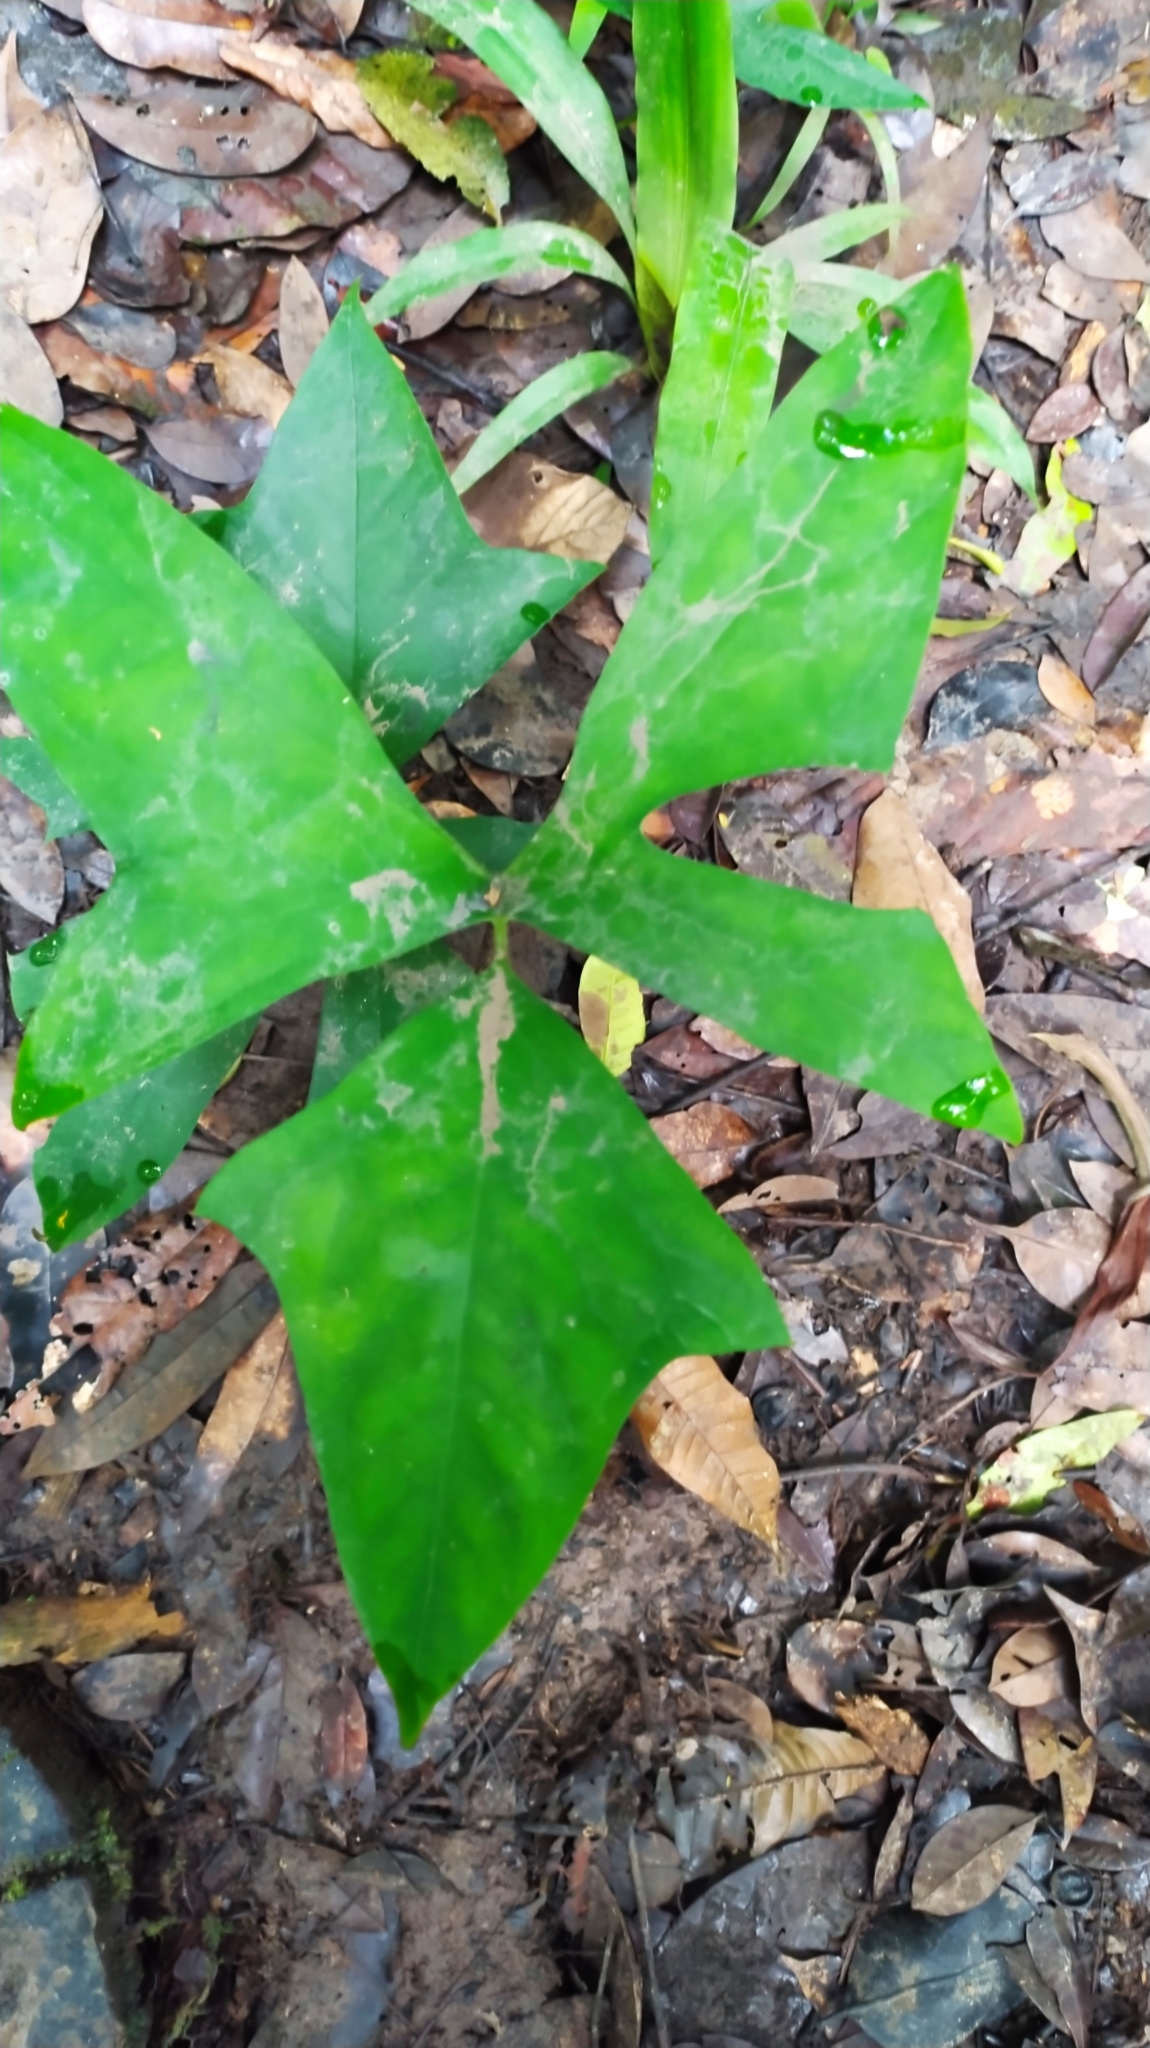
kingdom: Plantae
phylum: Tracheophyta
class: Liliopsida
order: Alismatales
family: Araceae
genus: Anaphyllopsis
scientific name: Anaphyllopsis americana
